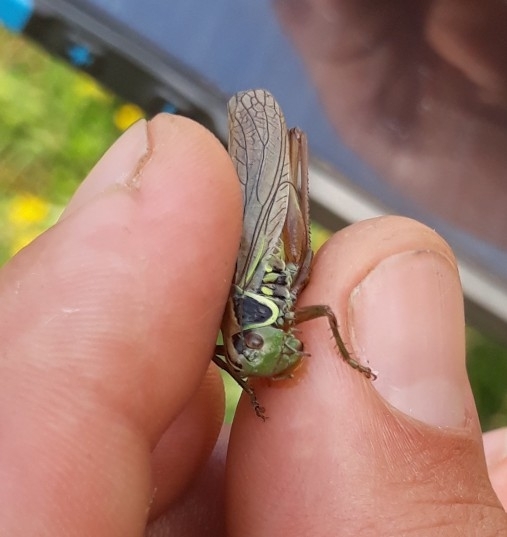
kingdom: Animalia
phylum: Arthropoda
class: Insecta
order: Orthoptera
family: Tettigoniidae
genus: Roeseliana
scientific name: Roeseliana roeselii
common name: Roesel's bush cricket
